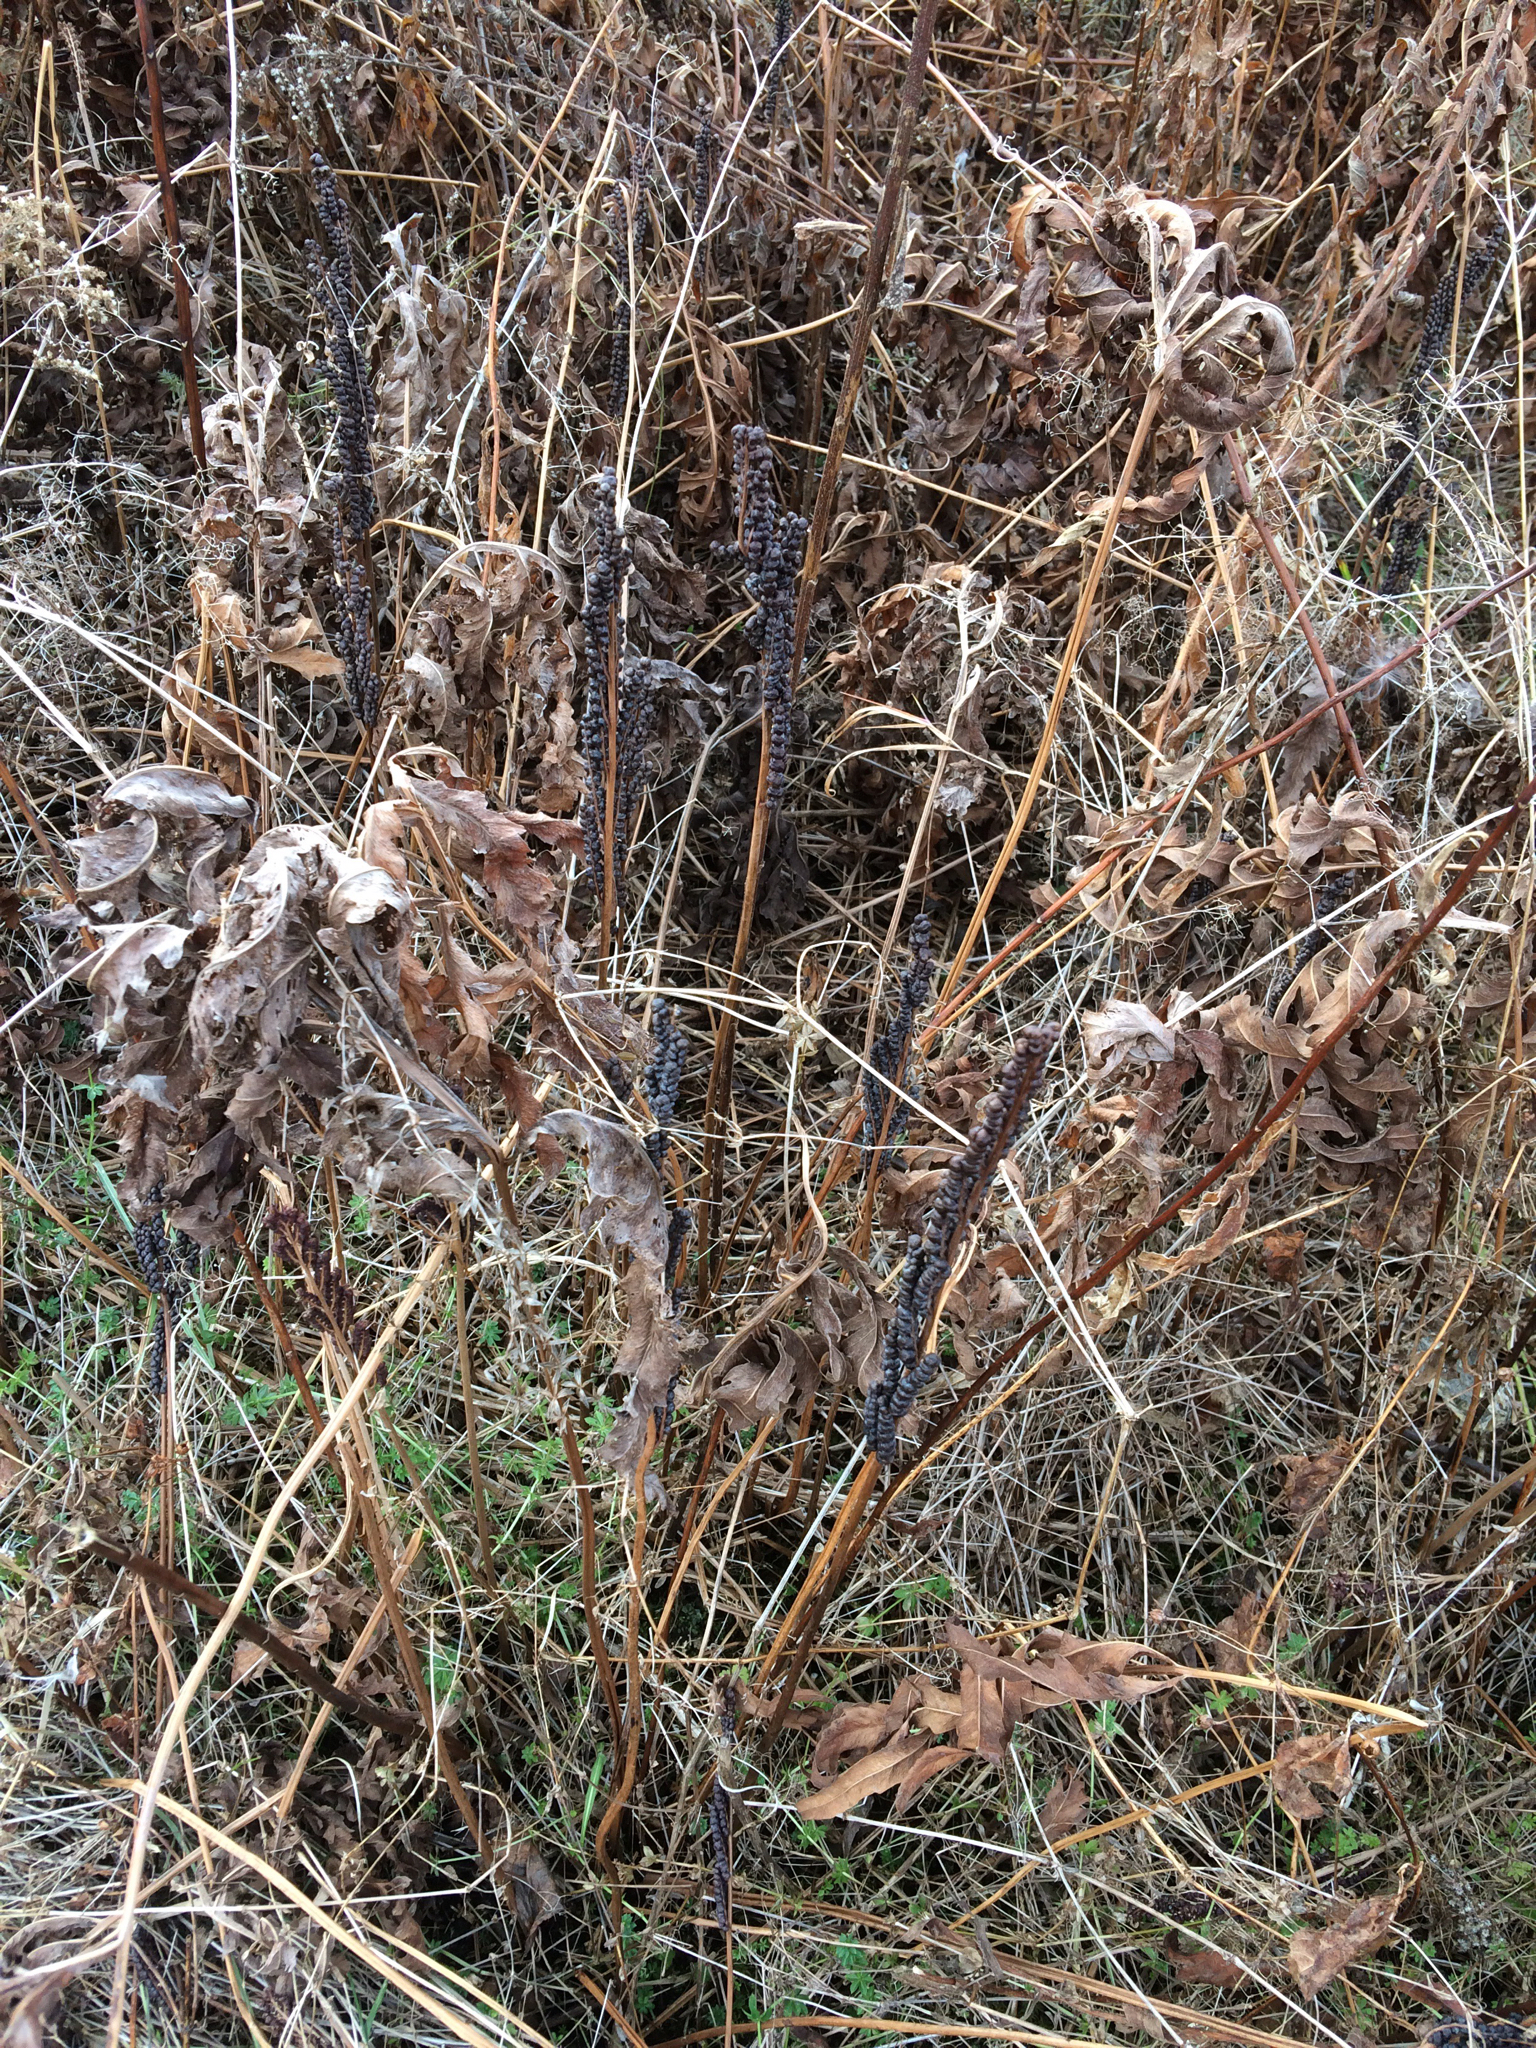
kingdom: Plantae
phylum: Tracheophyta
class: Polypodiopsida
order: Polypodiales
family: Onocleaceae
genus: Onoclea
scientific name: Onoclea sensibilis
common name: Sensitive fern
